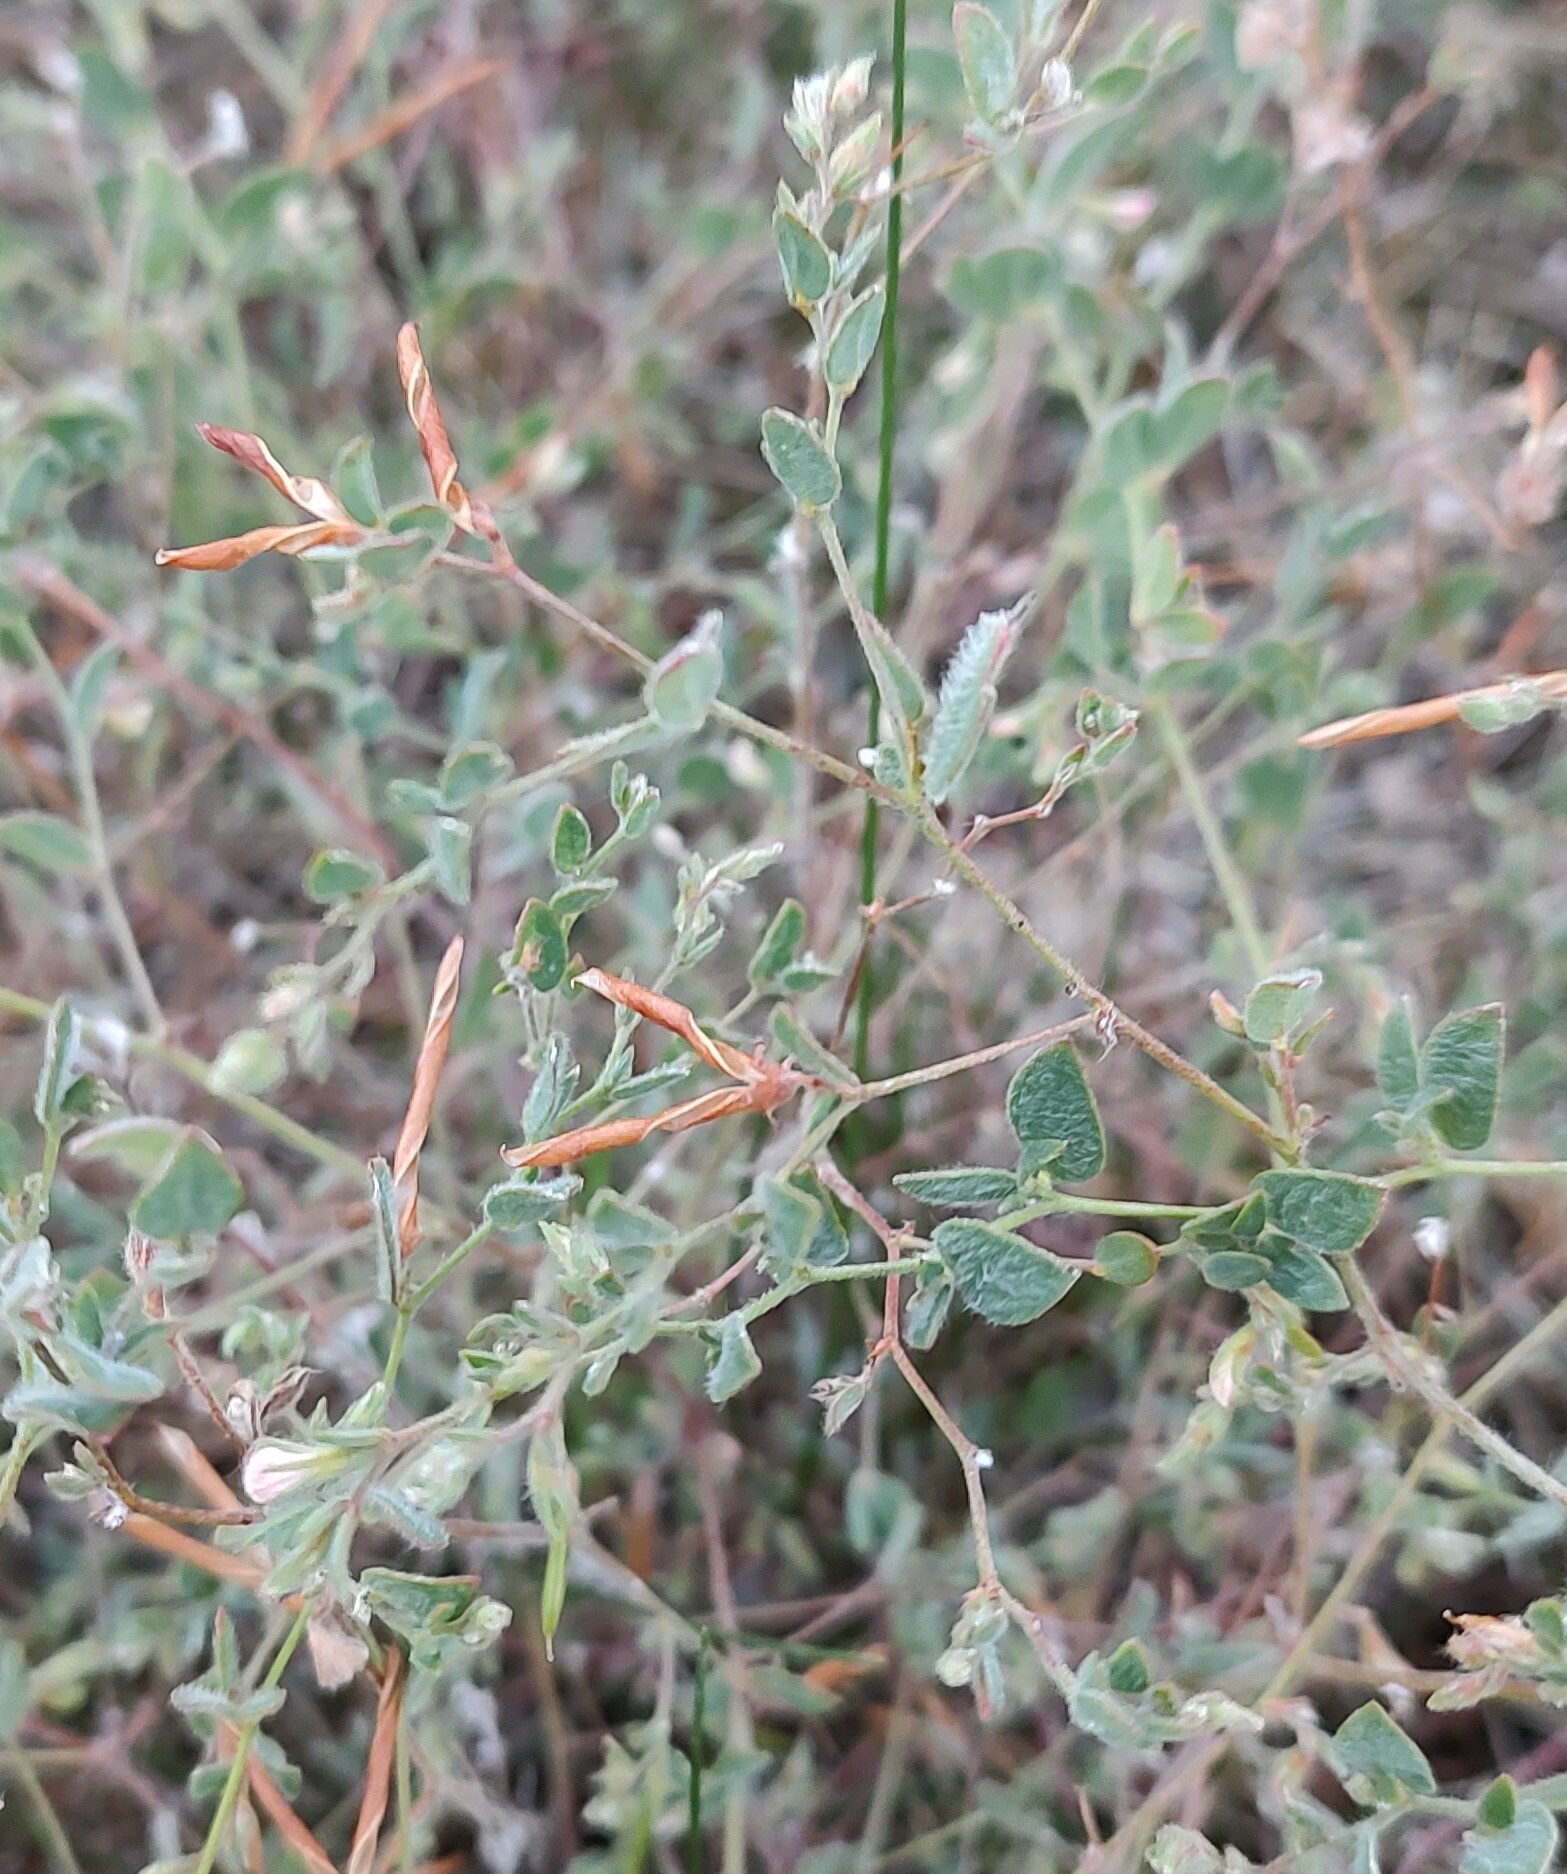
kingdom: Plantae
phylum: Tracheophyta
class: Magnoliopsida
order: Fabales
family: Fabaceae
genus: Acmispon
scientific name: Acmispon americanus
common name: American bird's-foot trefoil
